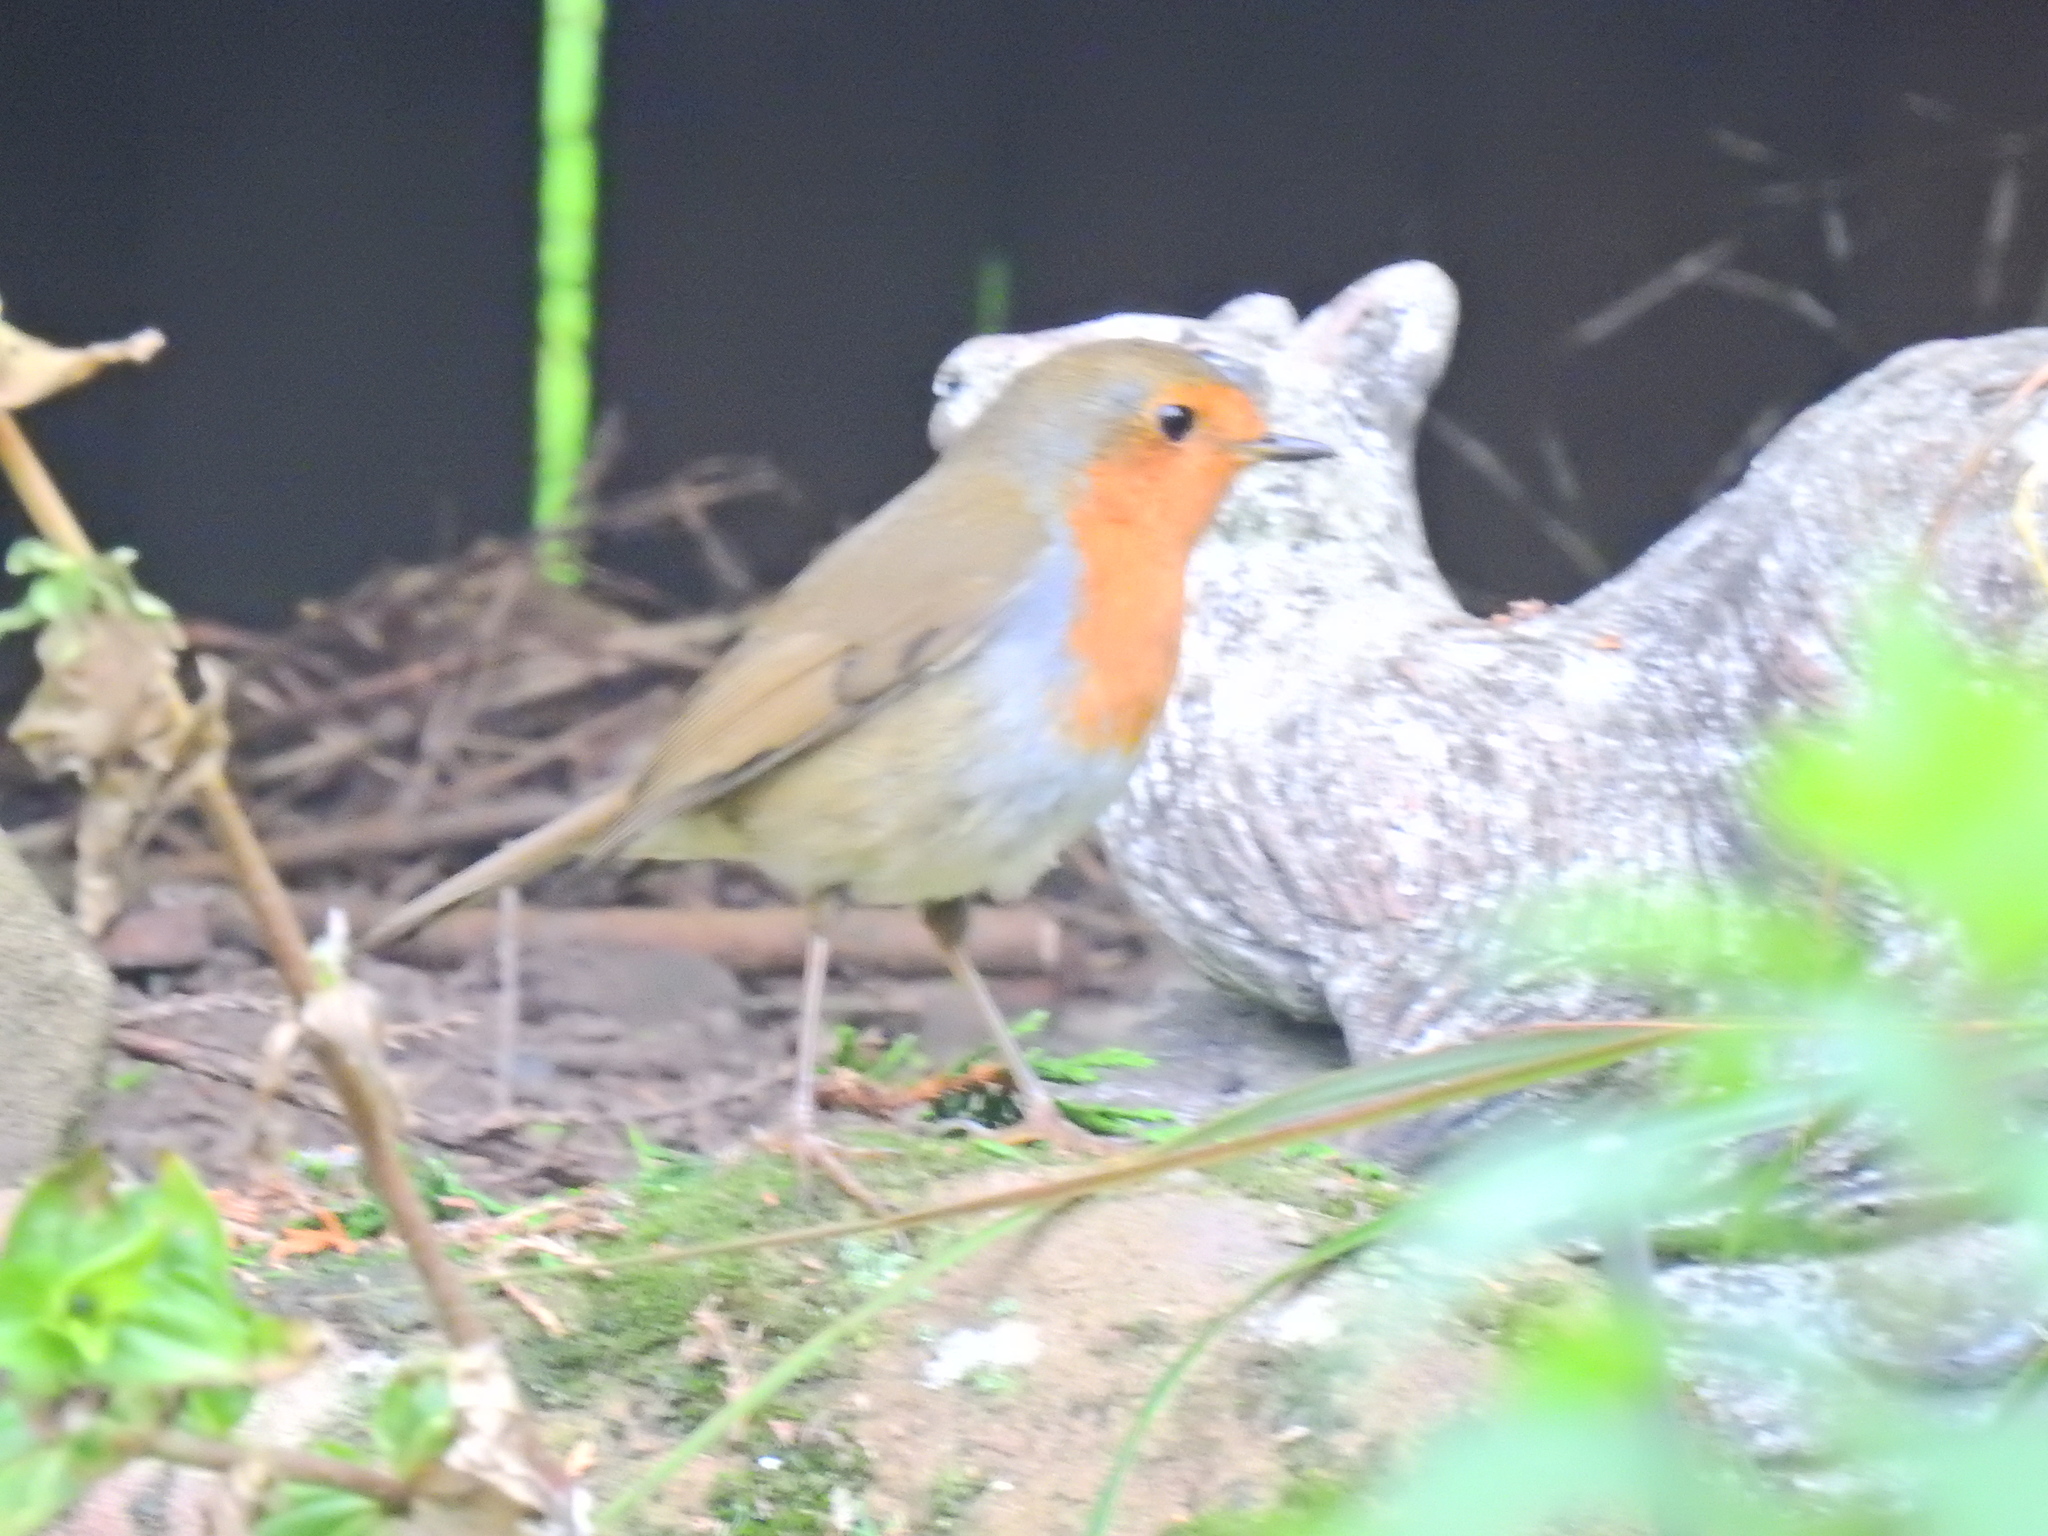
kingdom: Animalia
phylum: Chordata
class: Aves
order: Passeriformes
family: Muscicapidae
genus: Erithacus
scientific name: Erithacus rubecula
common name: European robin
